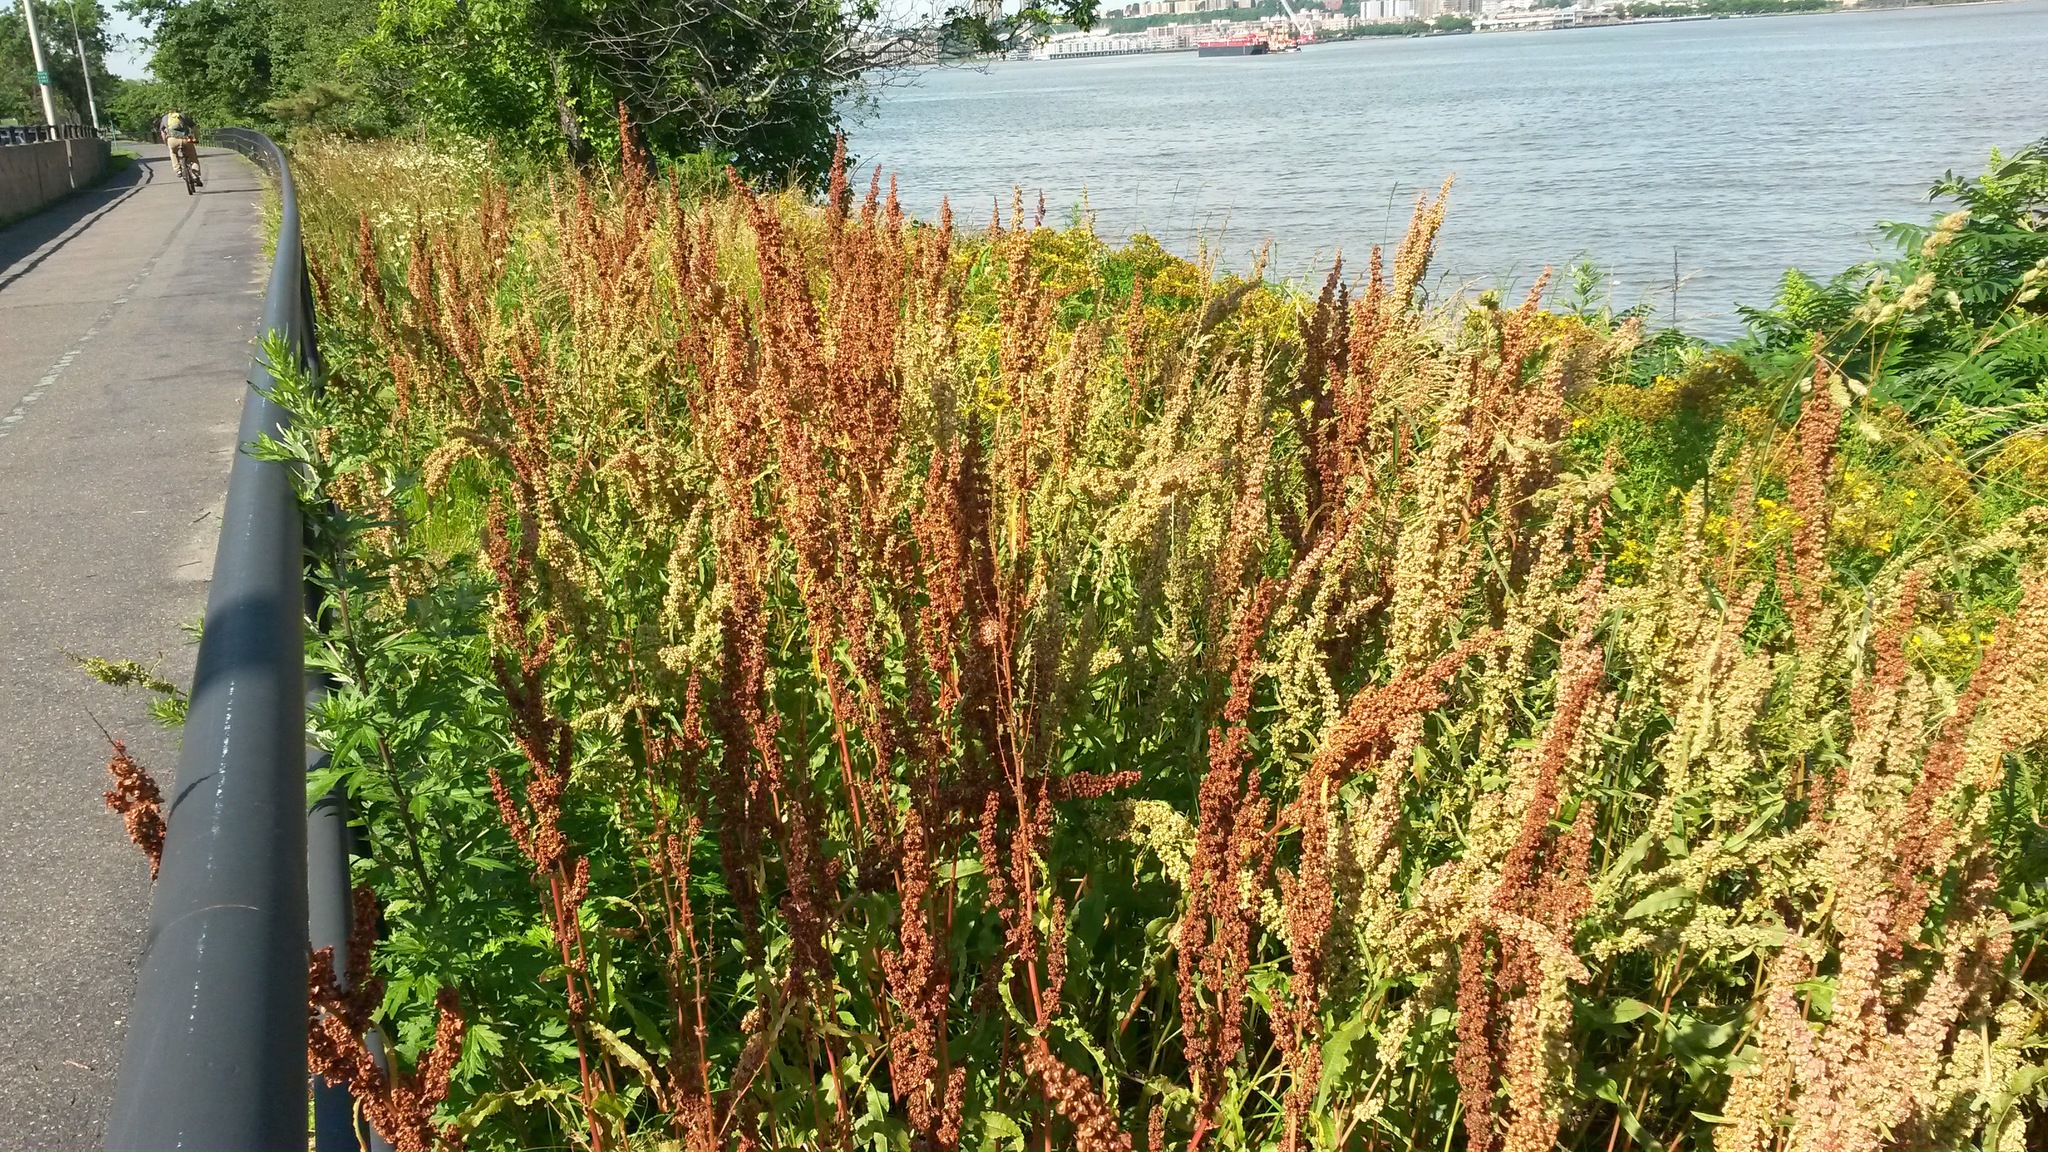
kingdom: Plantae
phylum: Tracheophyta
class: Magnoliopsida
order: Caryophyllales
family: Polygonaceae
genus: Rumex
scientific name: Rumex crispus
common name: Curled dock
